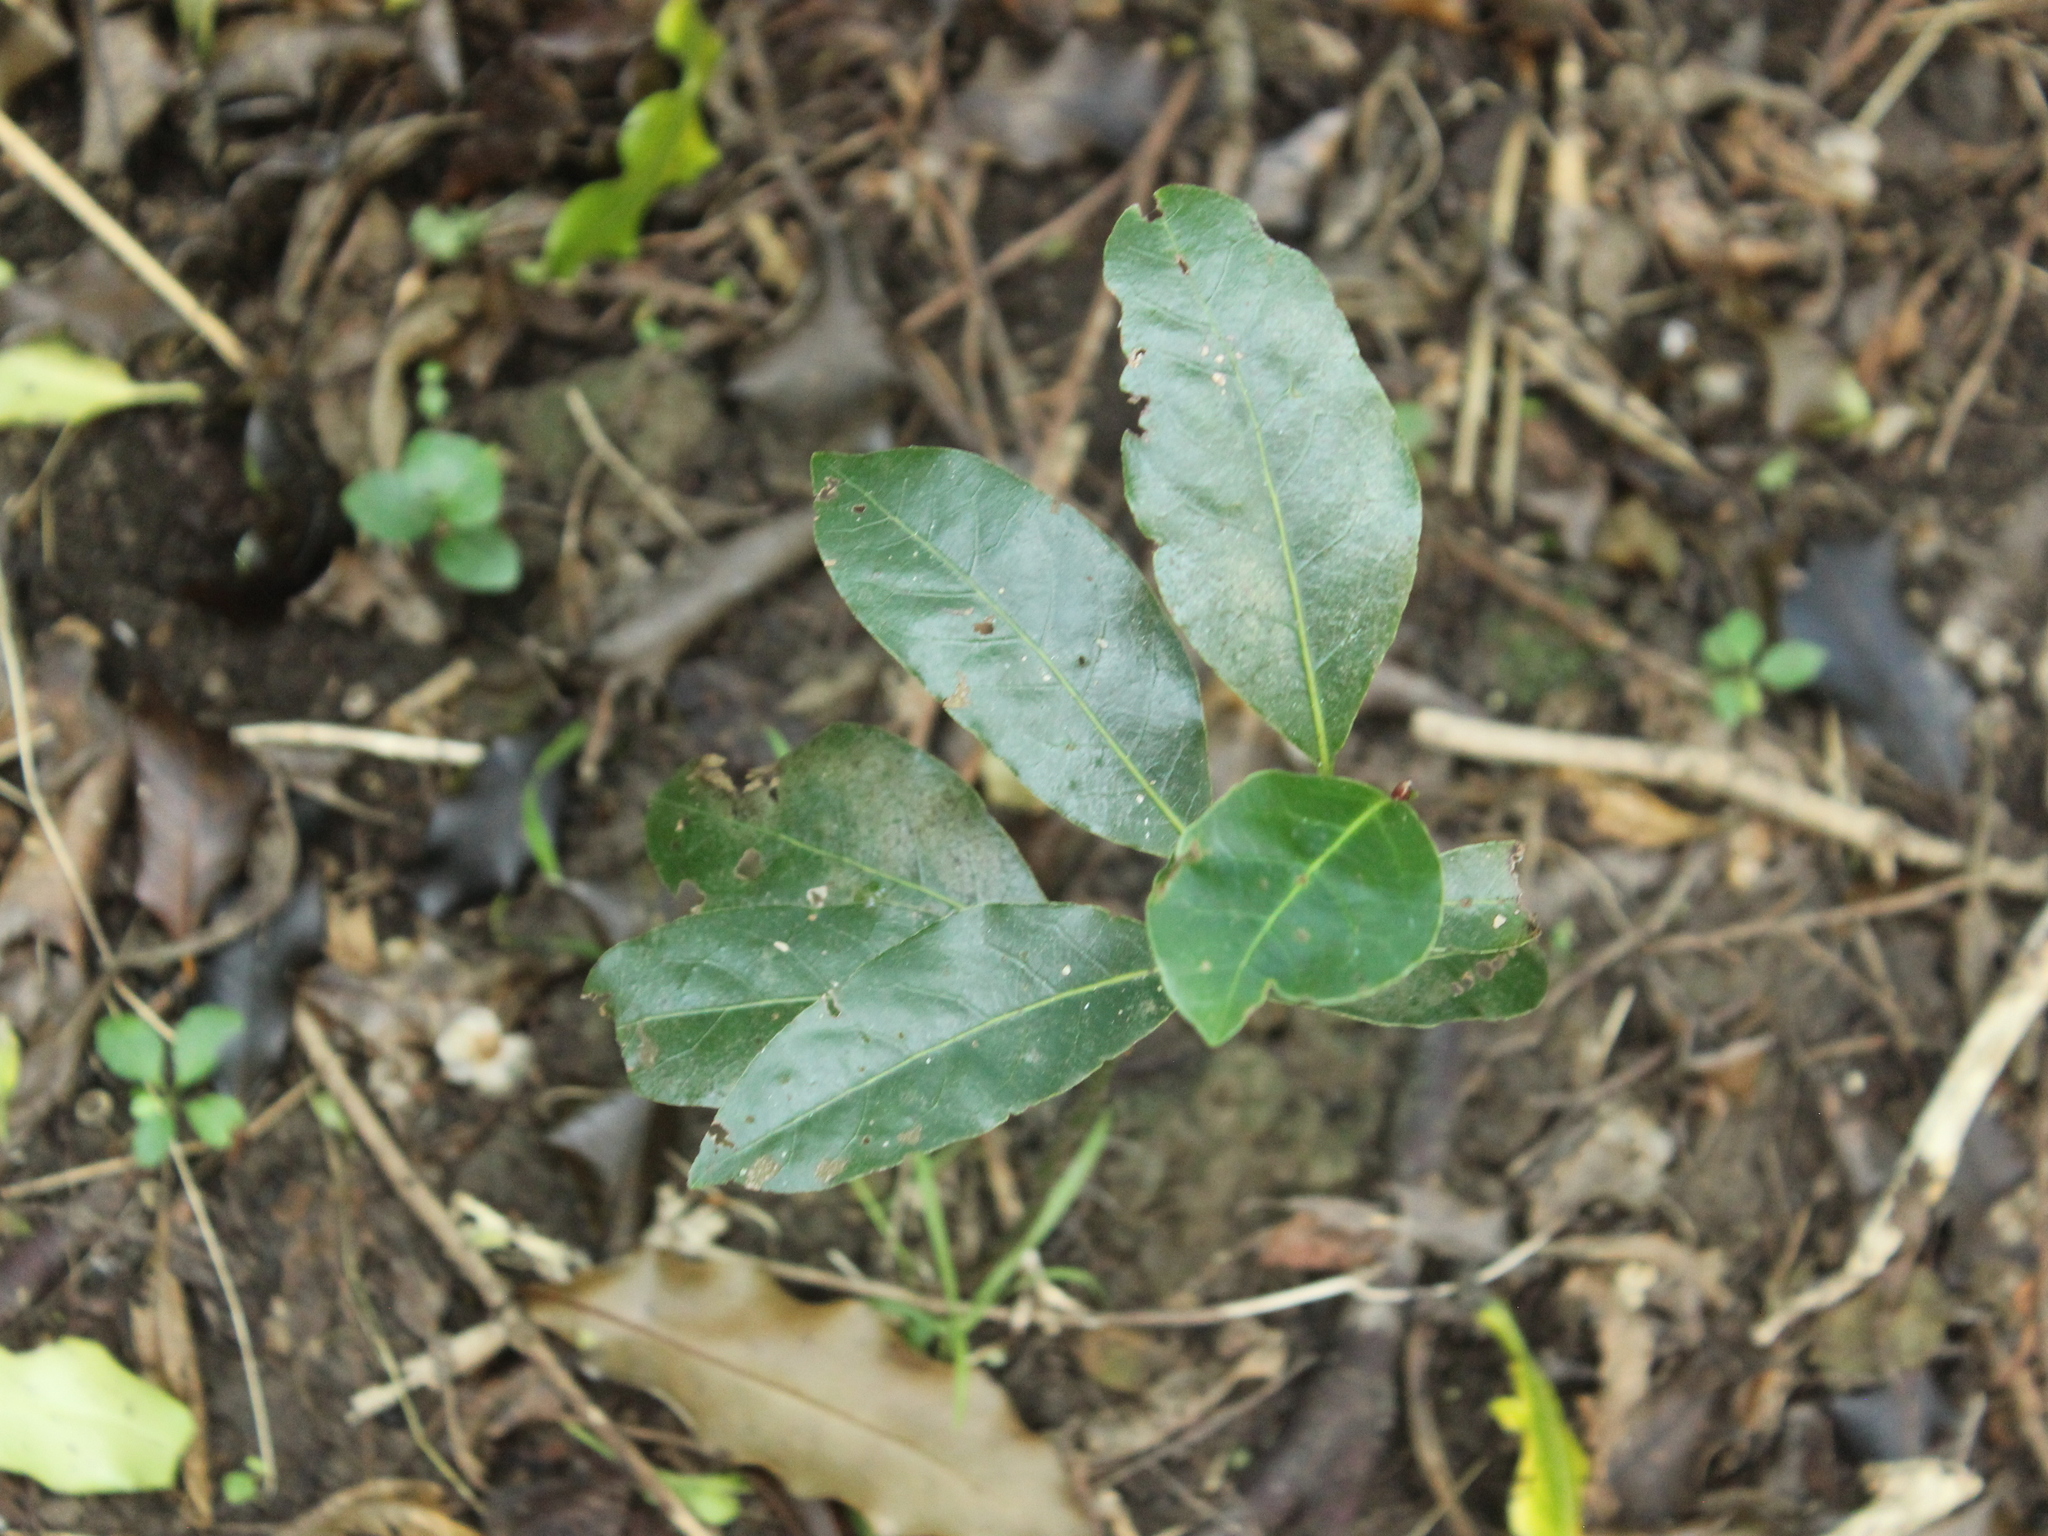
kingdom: Plantae
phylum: Tracheophyta
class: Magnoliopsida
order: Laurales
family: Lauraceae
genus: Laurus
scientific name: Laurus nobilis
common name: Bay
